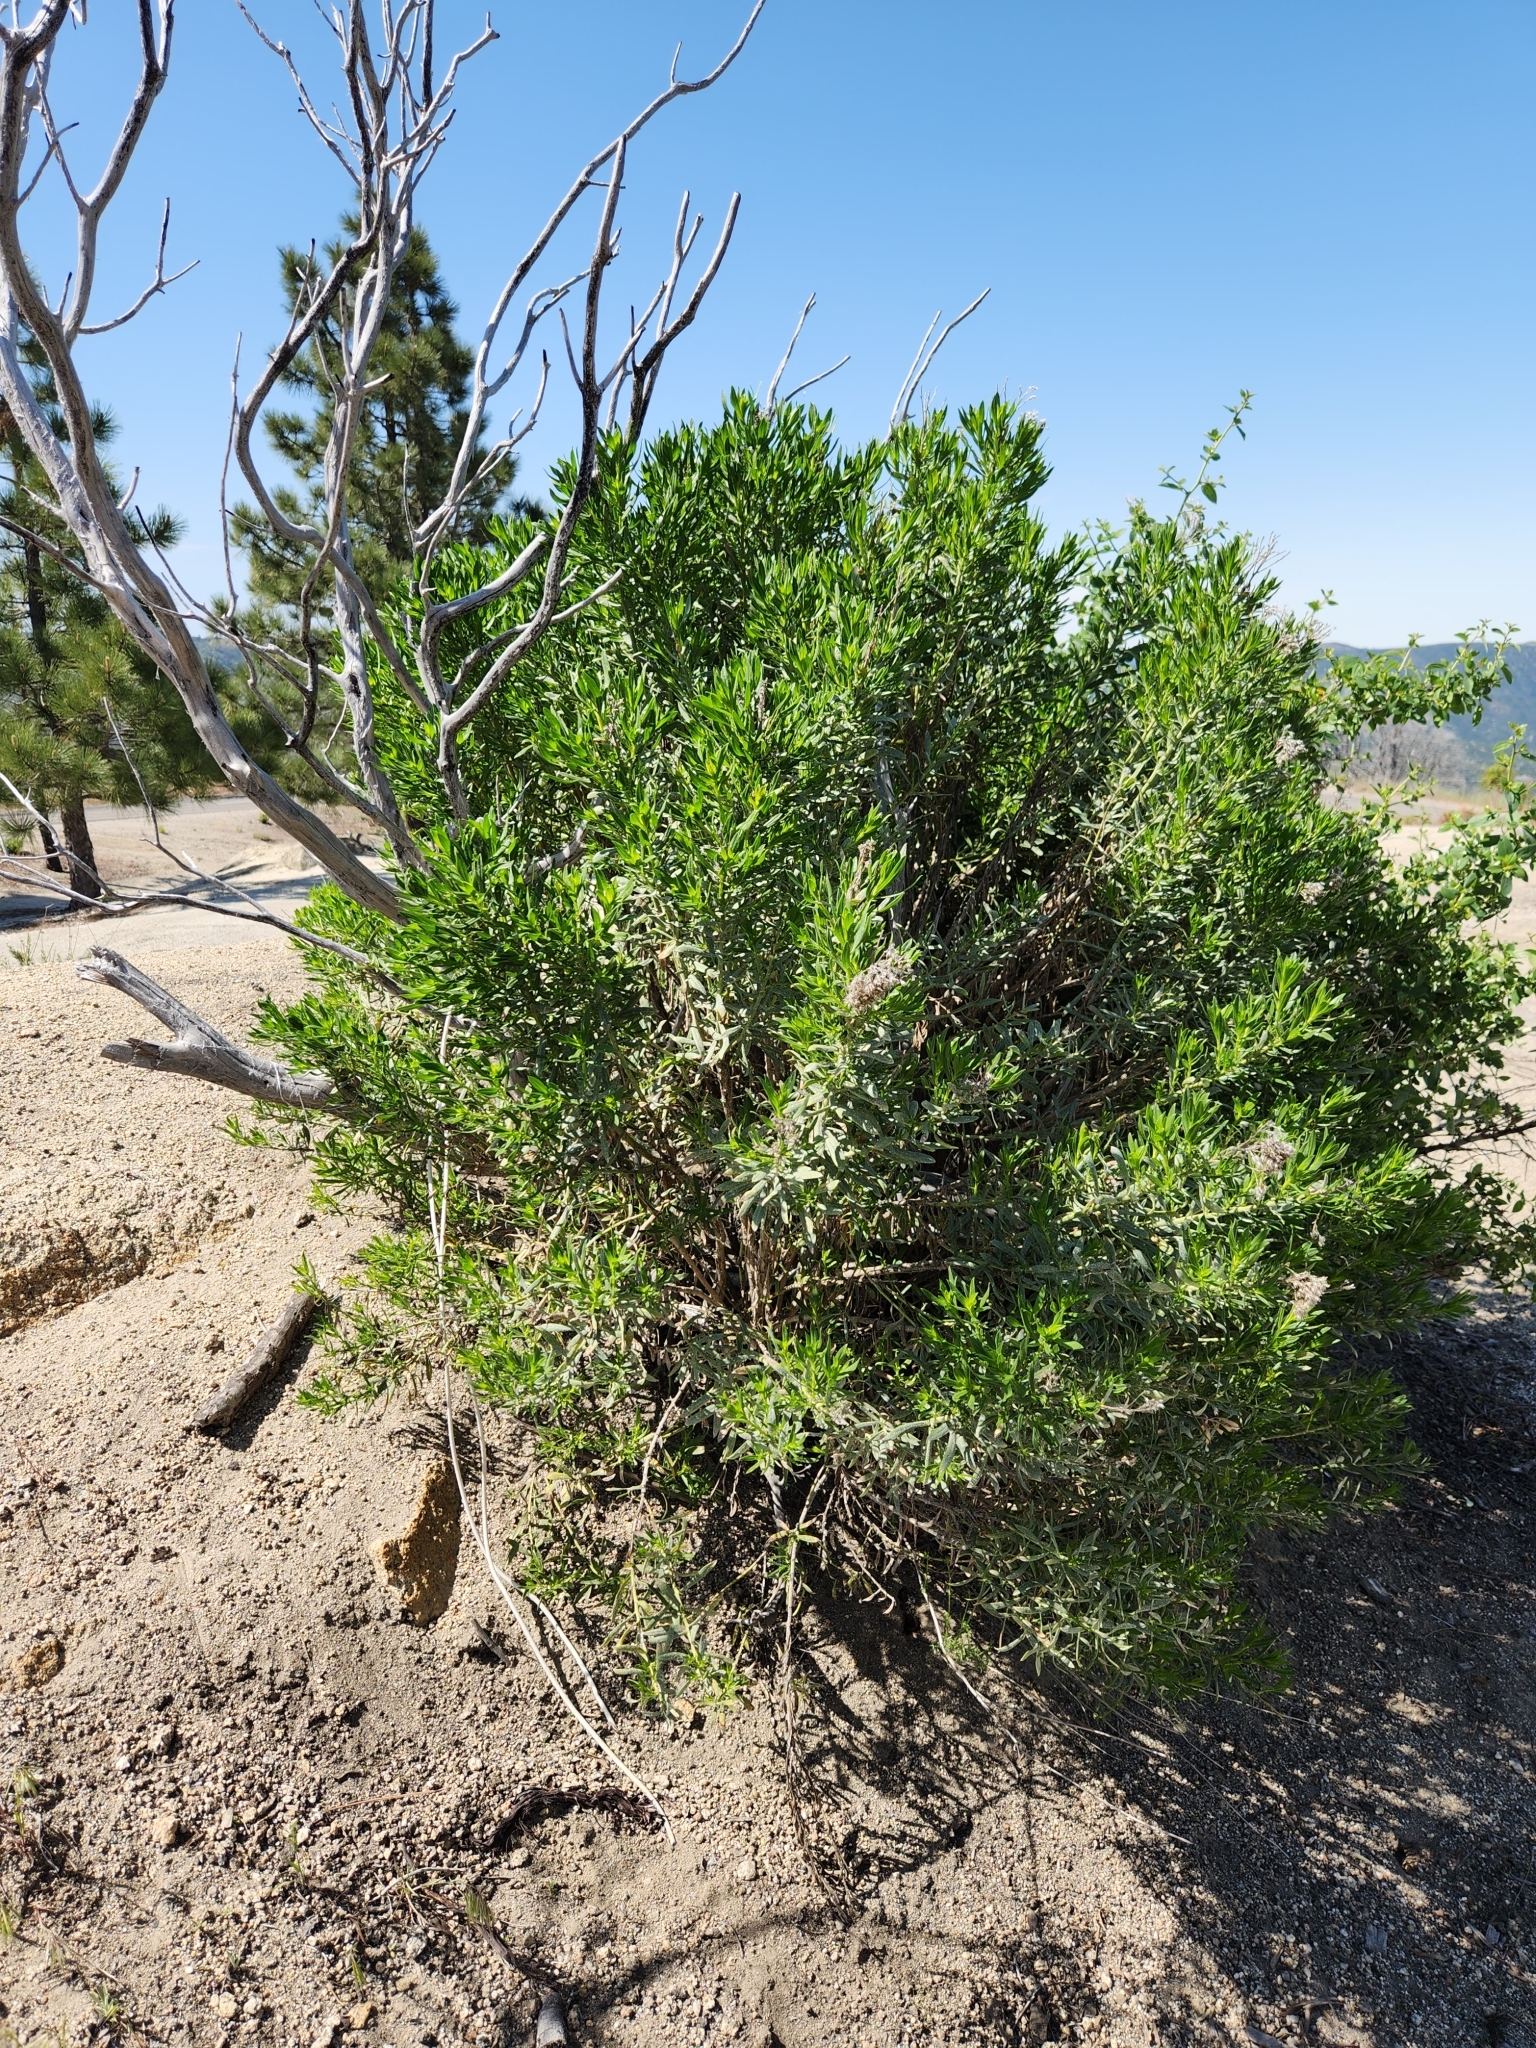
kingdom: Plantae
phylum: Tracheophyta
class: Magnoliopsida
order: Asterales
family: Asteraceae
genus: Ericameria
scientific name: Ericameria parishii
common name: Parish's goldenbush
